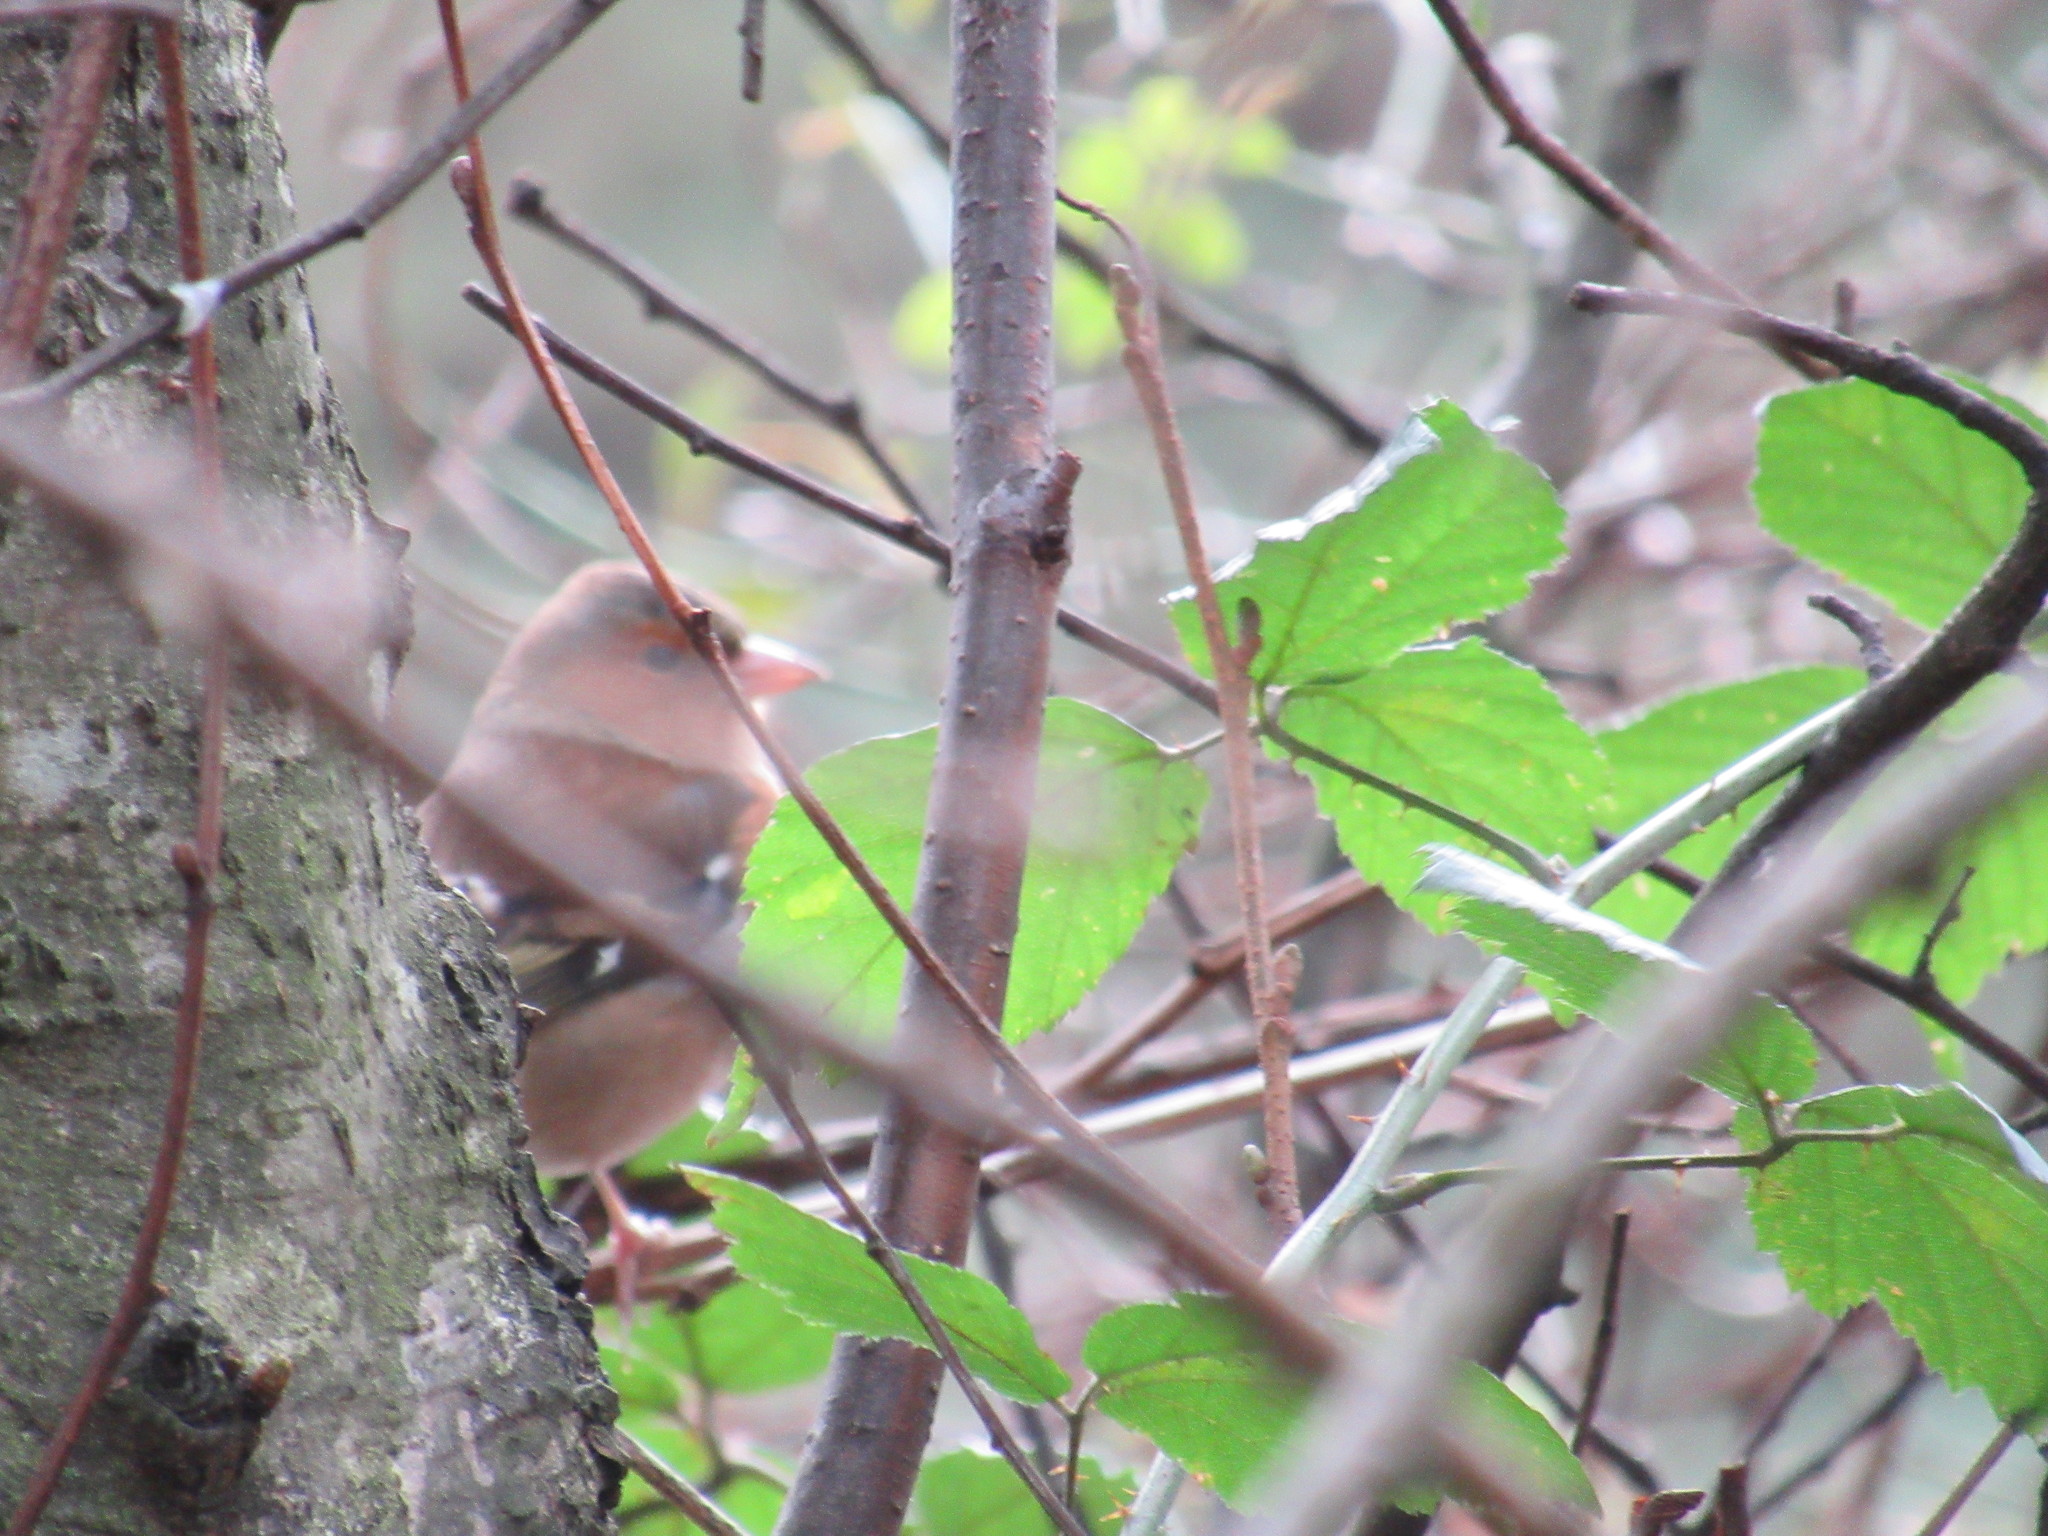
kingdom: Animalia
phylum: Chordata
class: Aves
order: Passeriformes
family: Fringillidae
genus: Fringilla
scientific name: Fringilla coelebs
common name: Common chaffinch
